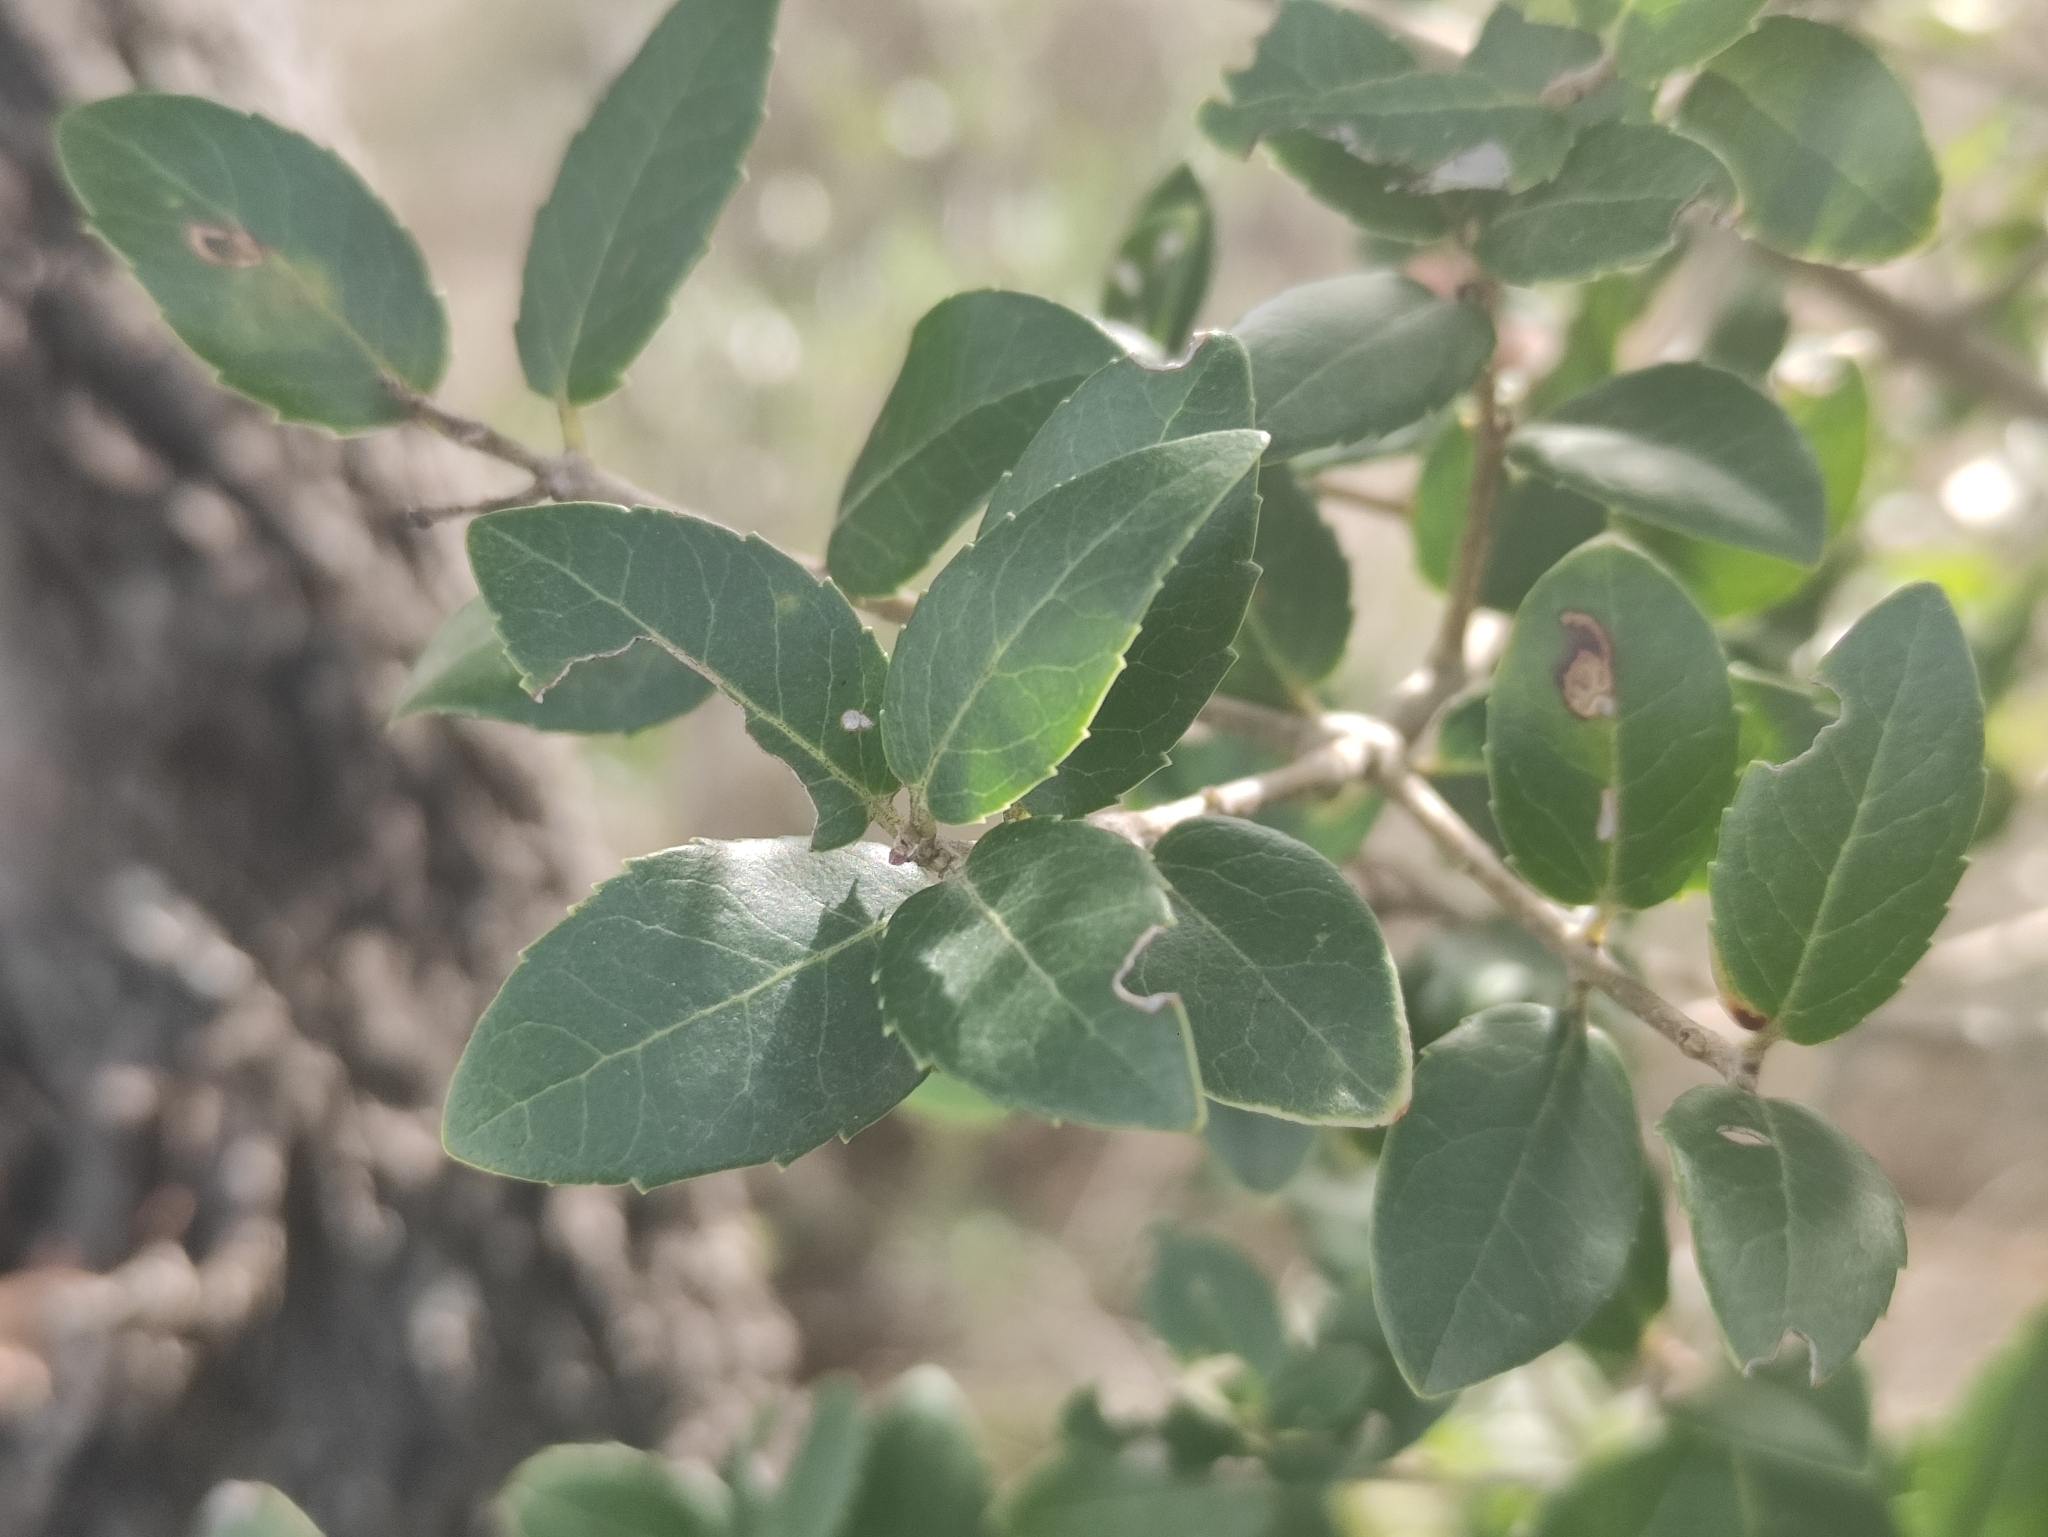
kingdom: Plantae
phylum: Tracheophyta
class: Magnoliopsida
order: Lamiales
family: Oleaceae
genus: Phillyrea
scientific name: Phillyrea latifolia
